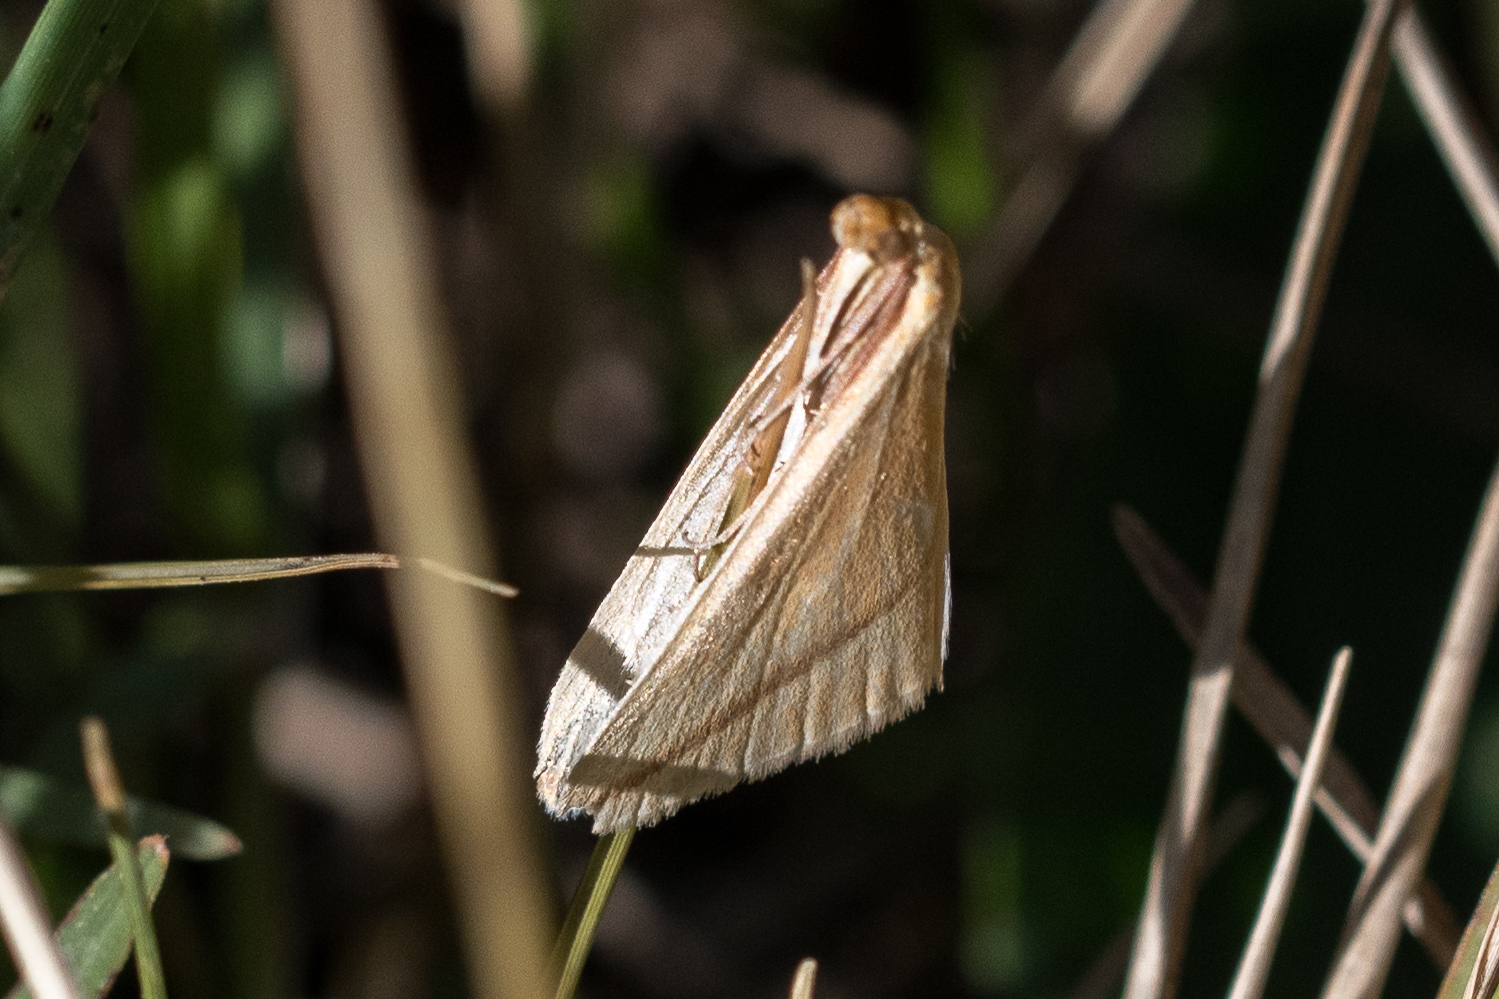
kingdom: Animalia
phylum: Arthropoda
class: Insecta
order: Lepidoptera
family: Geometridae
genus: Rhodometra
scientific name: Rhodometra sacraria
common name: Vestal
